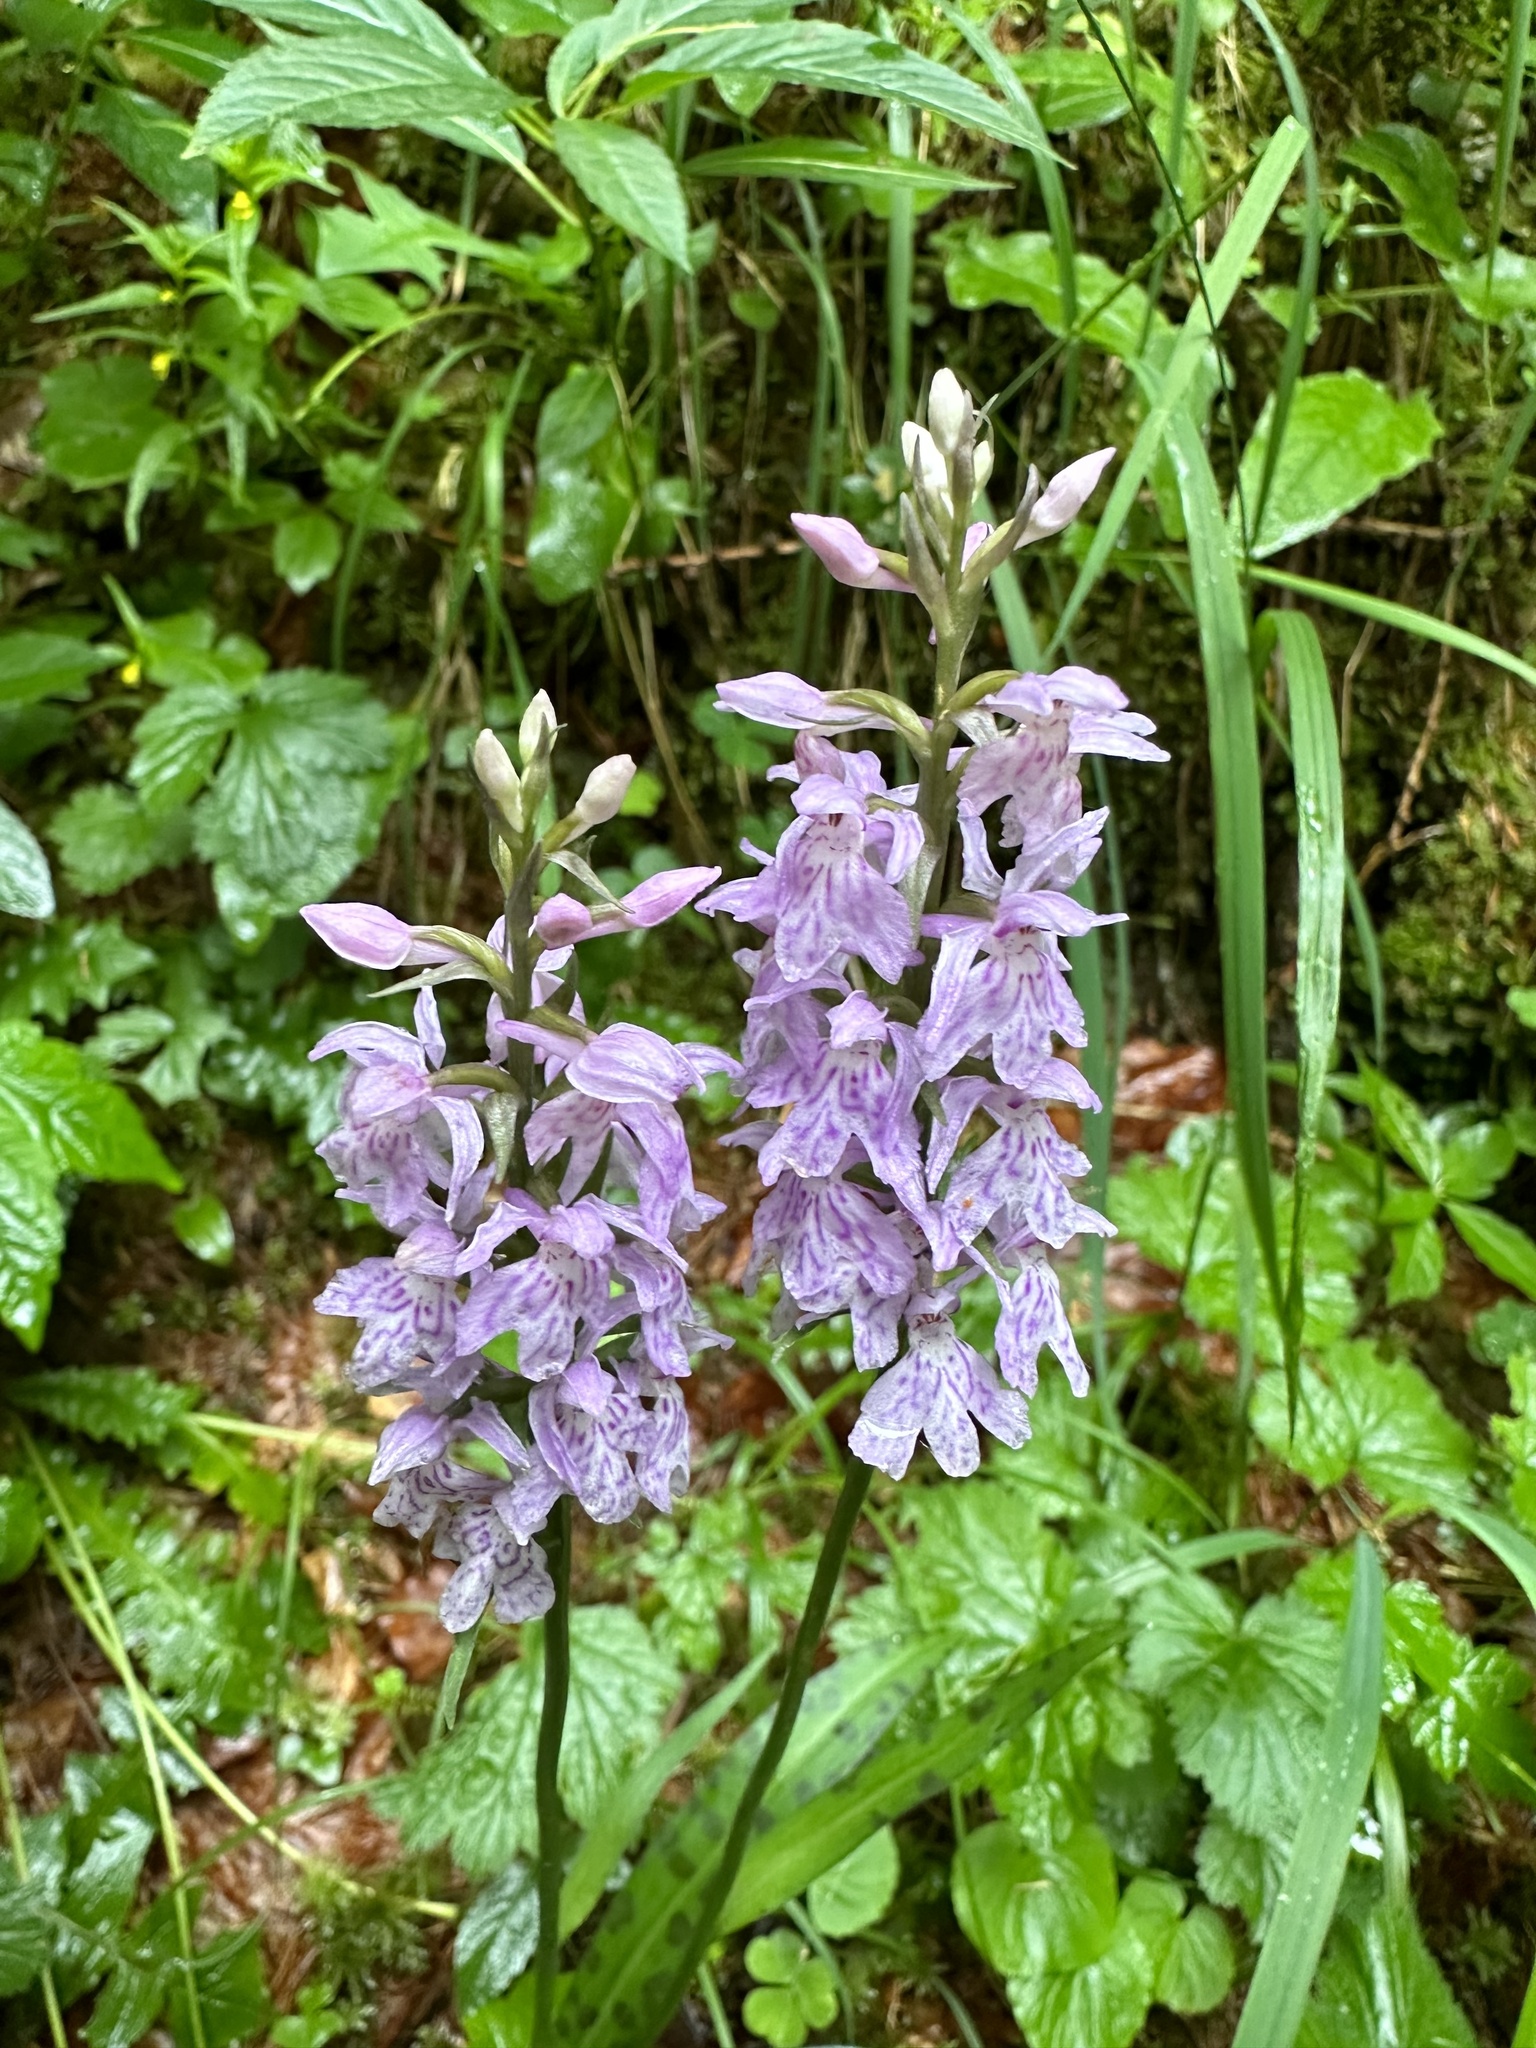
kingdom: Plantae
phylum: Tracheophyta
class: Liliopsida
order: Asparagales
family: Orchidaceae
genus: Dactylorhiza
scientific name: Dactylorhiza maculata
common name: Heath spotted-orchid
